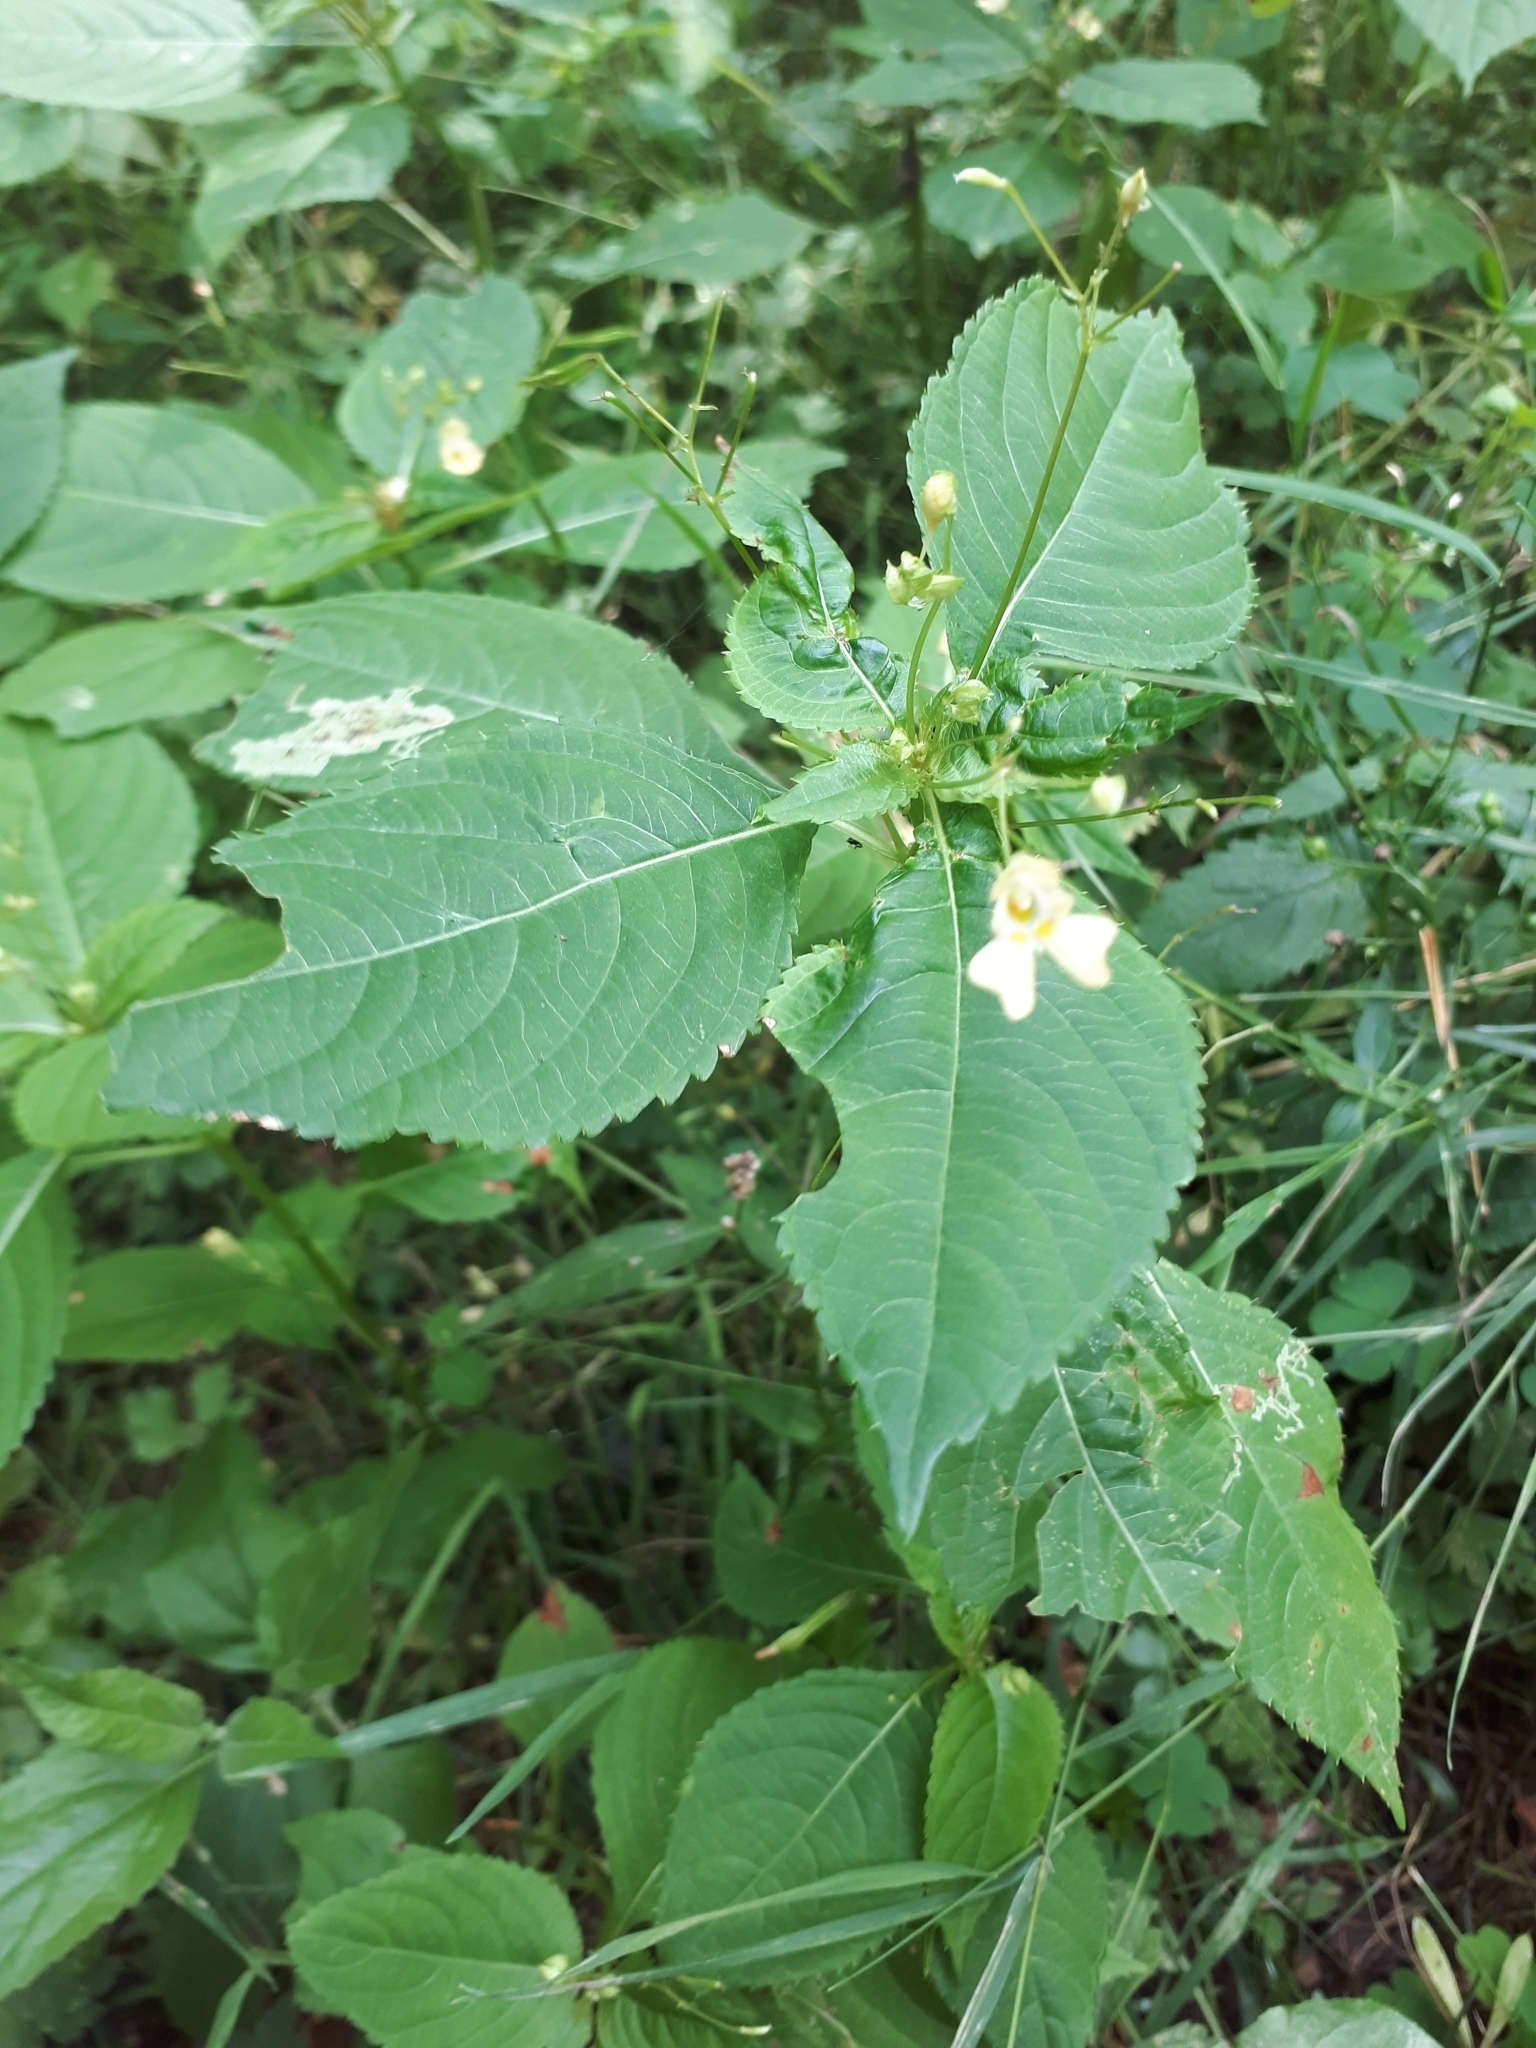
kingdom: Plantae
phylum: Tracheophyta
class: Magnoliopsida
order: Ericales
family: Balsaminaceae
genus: Impatiens
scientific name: Impatiens parviflora
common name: Small balsam
